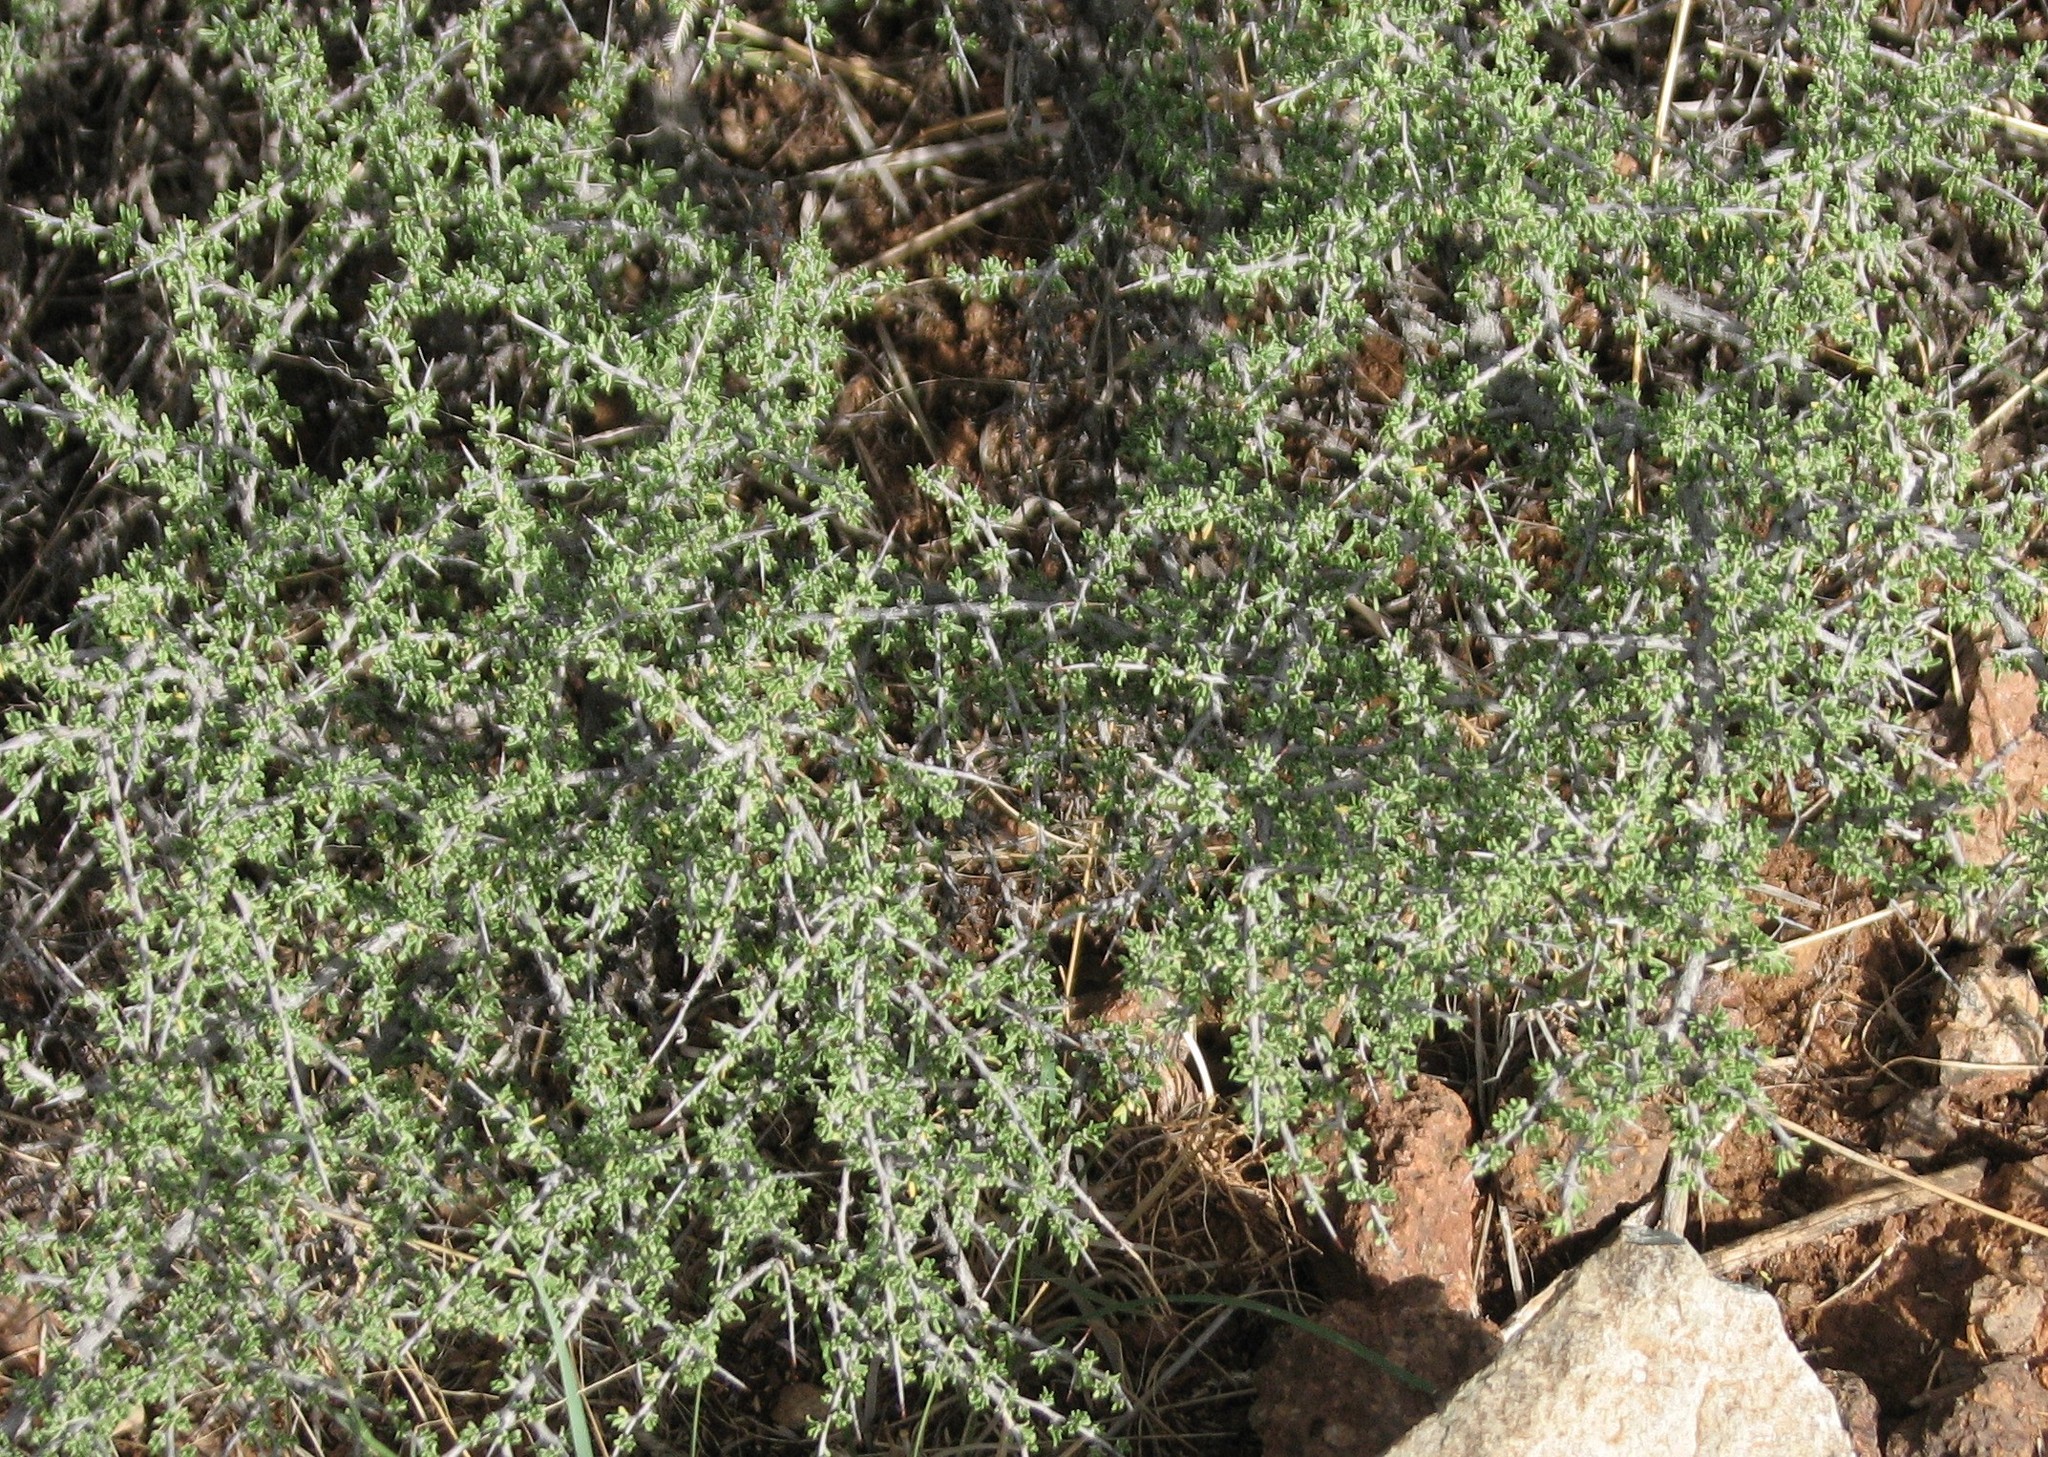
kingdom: Plantae
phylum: Tracheophyta
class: Magnoliopsida
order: Rosales
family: Rhamnaceae
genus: Condalia
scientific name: Condalia ericoides
